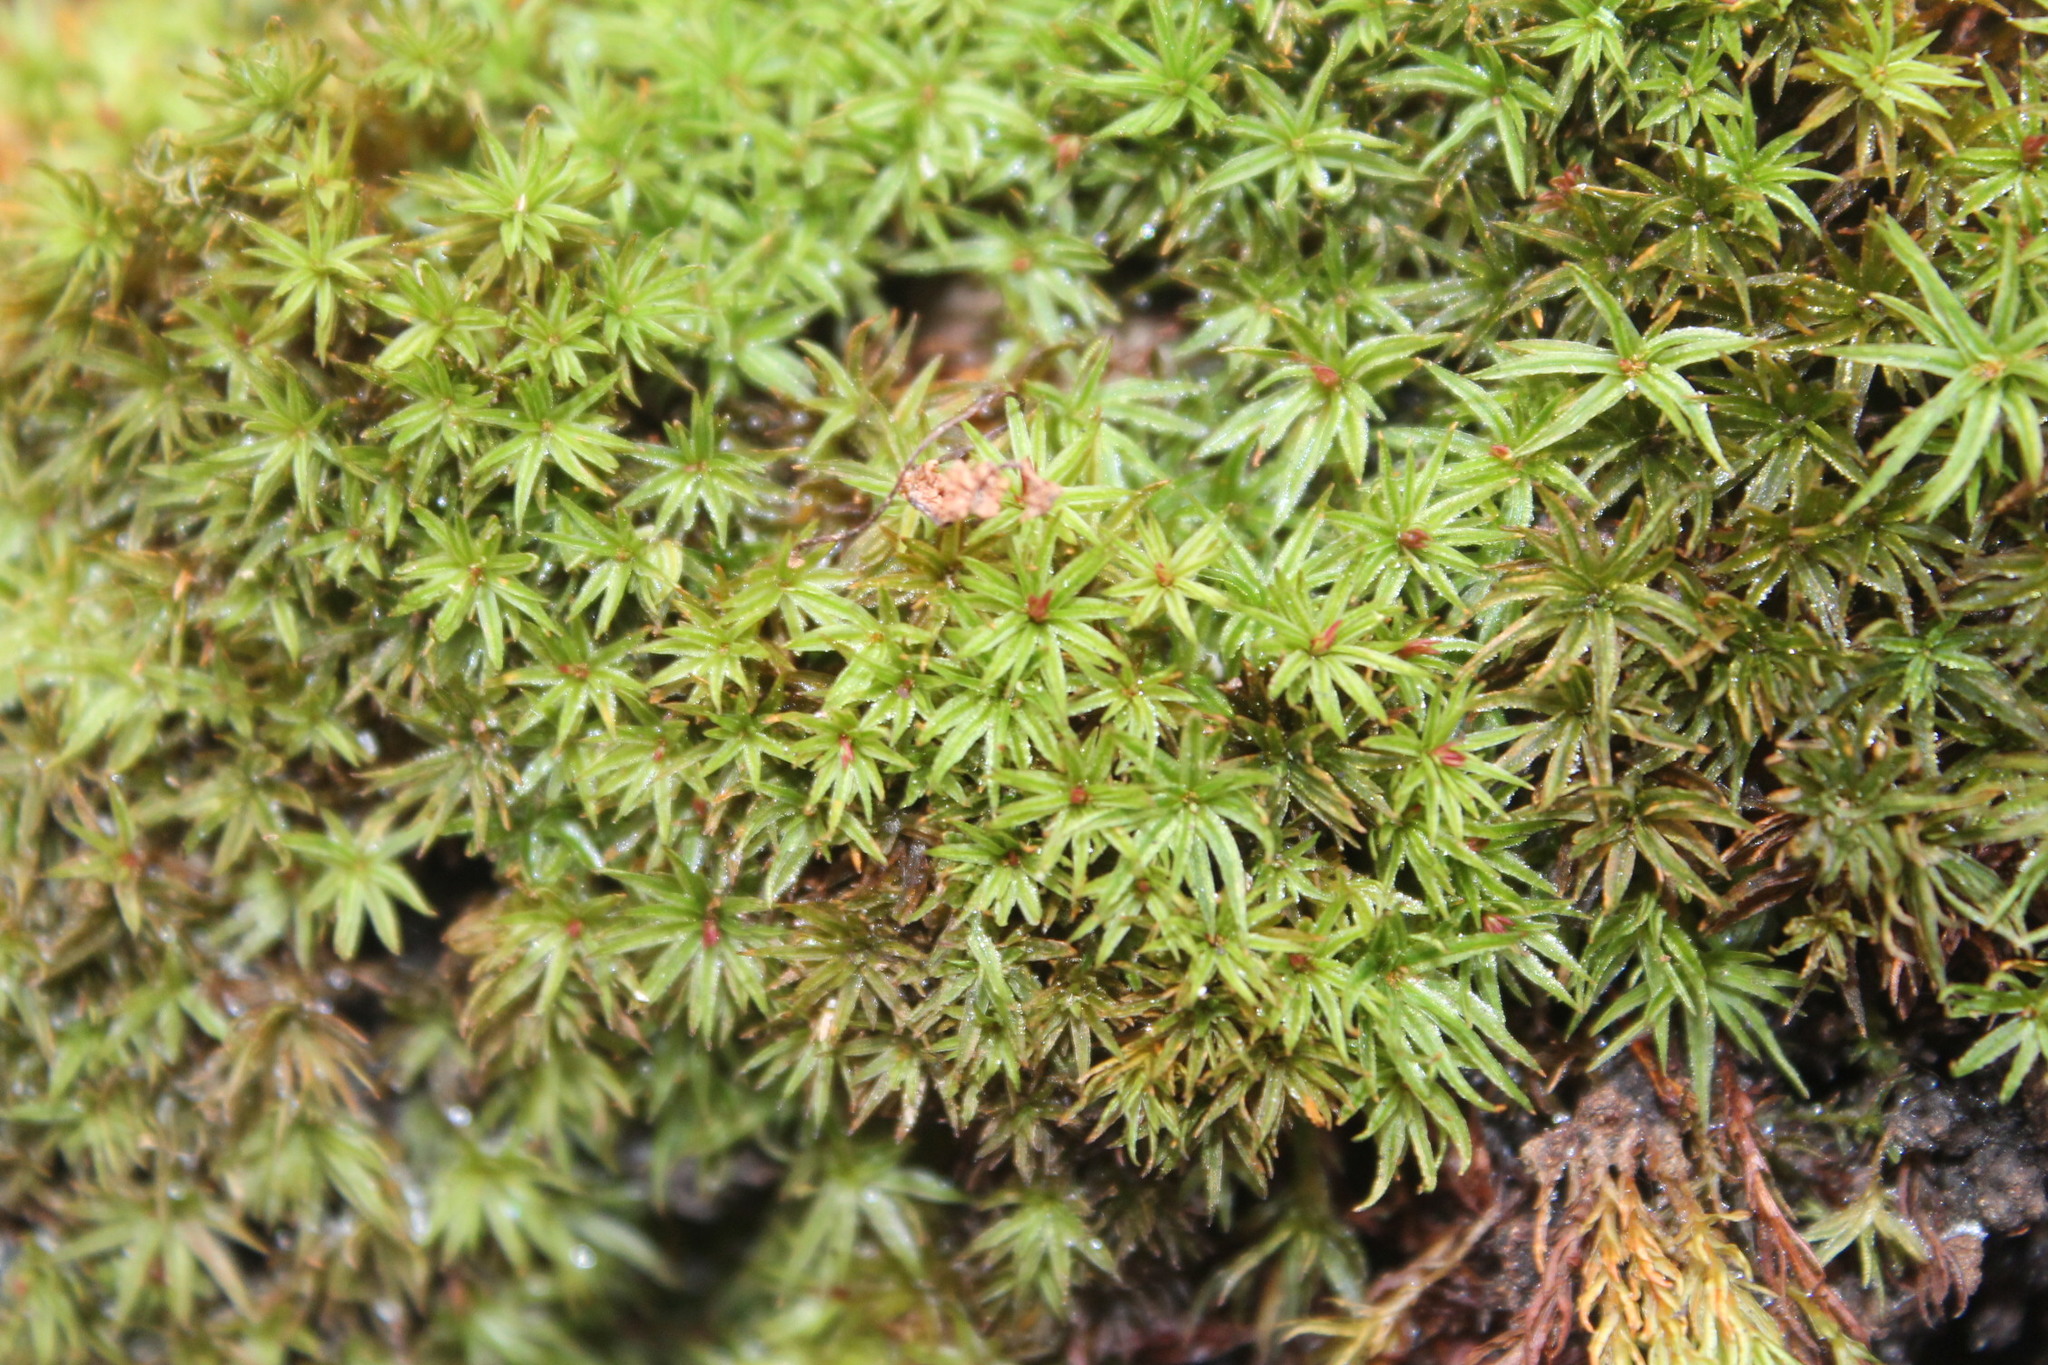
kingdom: Plantae
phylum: Bryophyta
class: Polytrichopsida
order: Polytrichales
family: Polytrichaceae
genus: Atrichum
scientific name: Atrichum angustatum
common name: Lesser smoothcap
